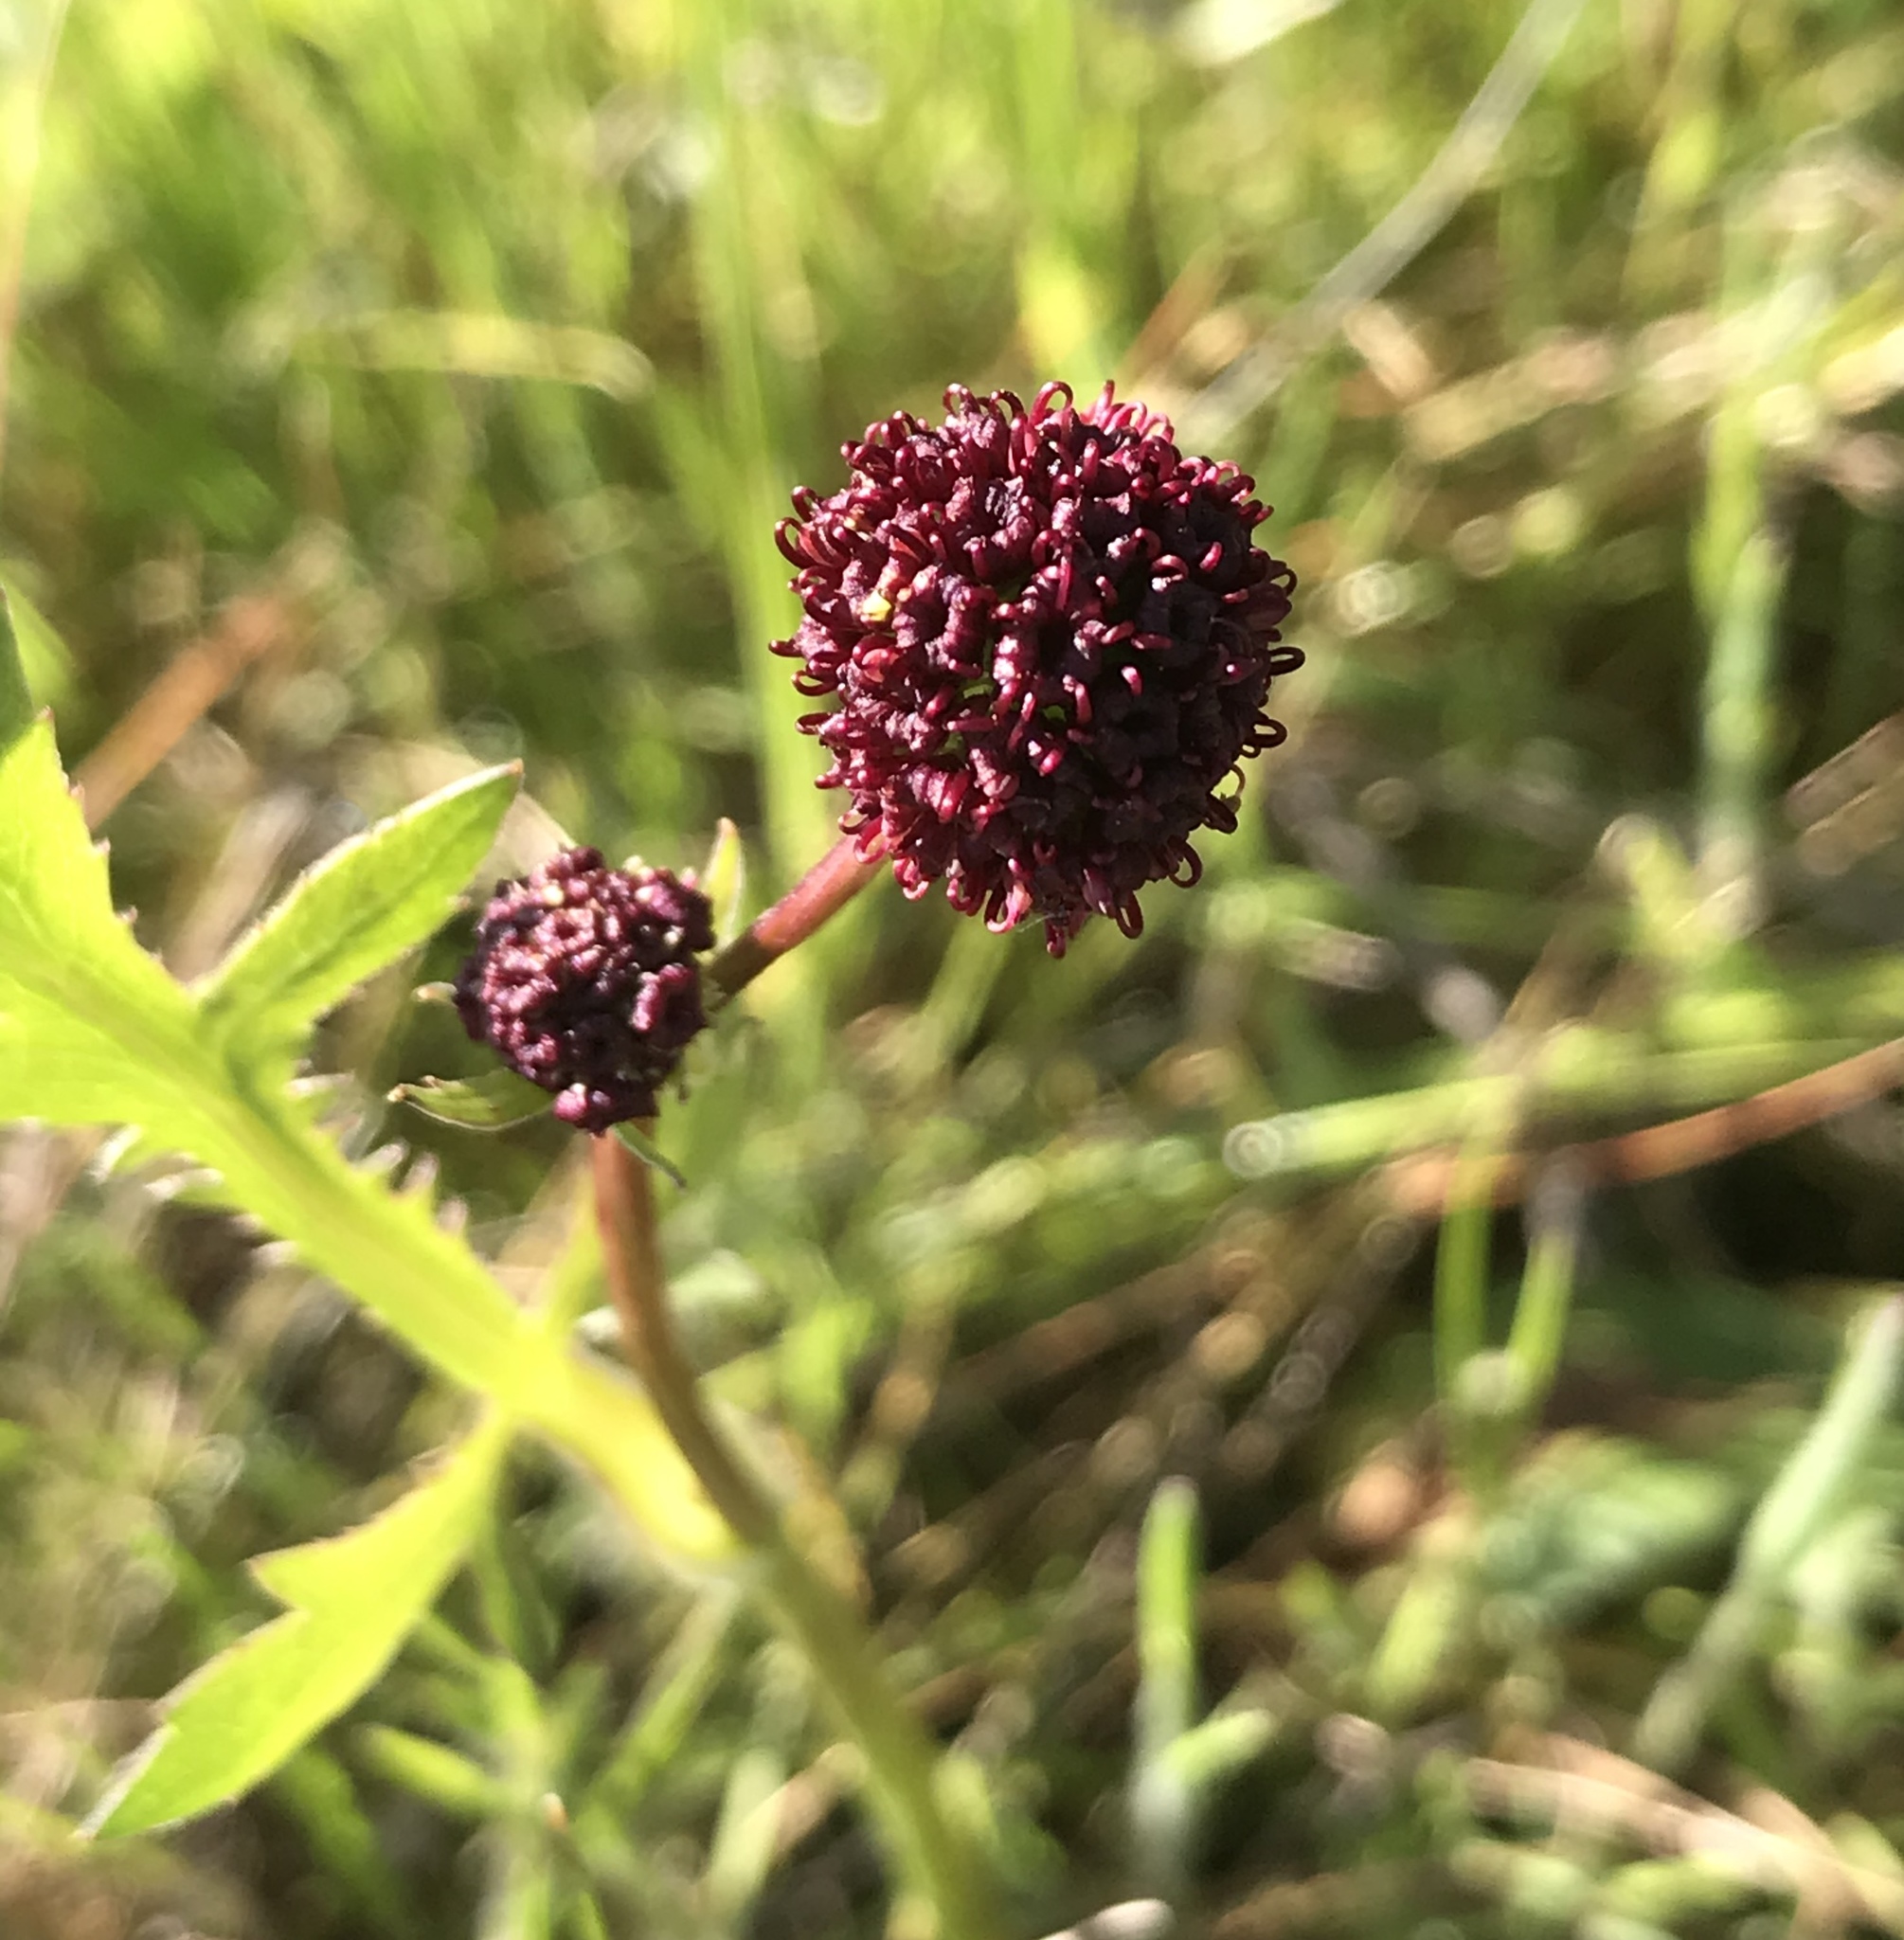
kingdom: Plantae
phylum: Tracheophyta
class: Magnoliopsida
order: Apiales
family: Apiaceae
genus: Sanicula
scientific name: Sanicula bipinnatifida
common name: Shoe-buttons
